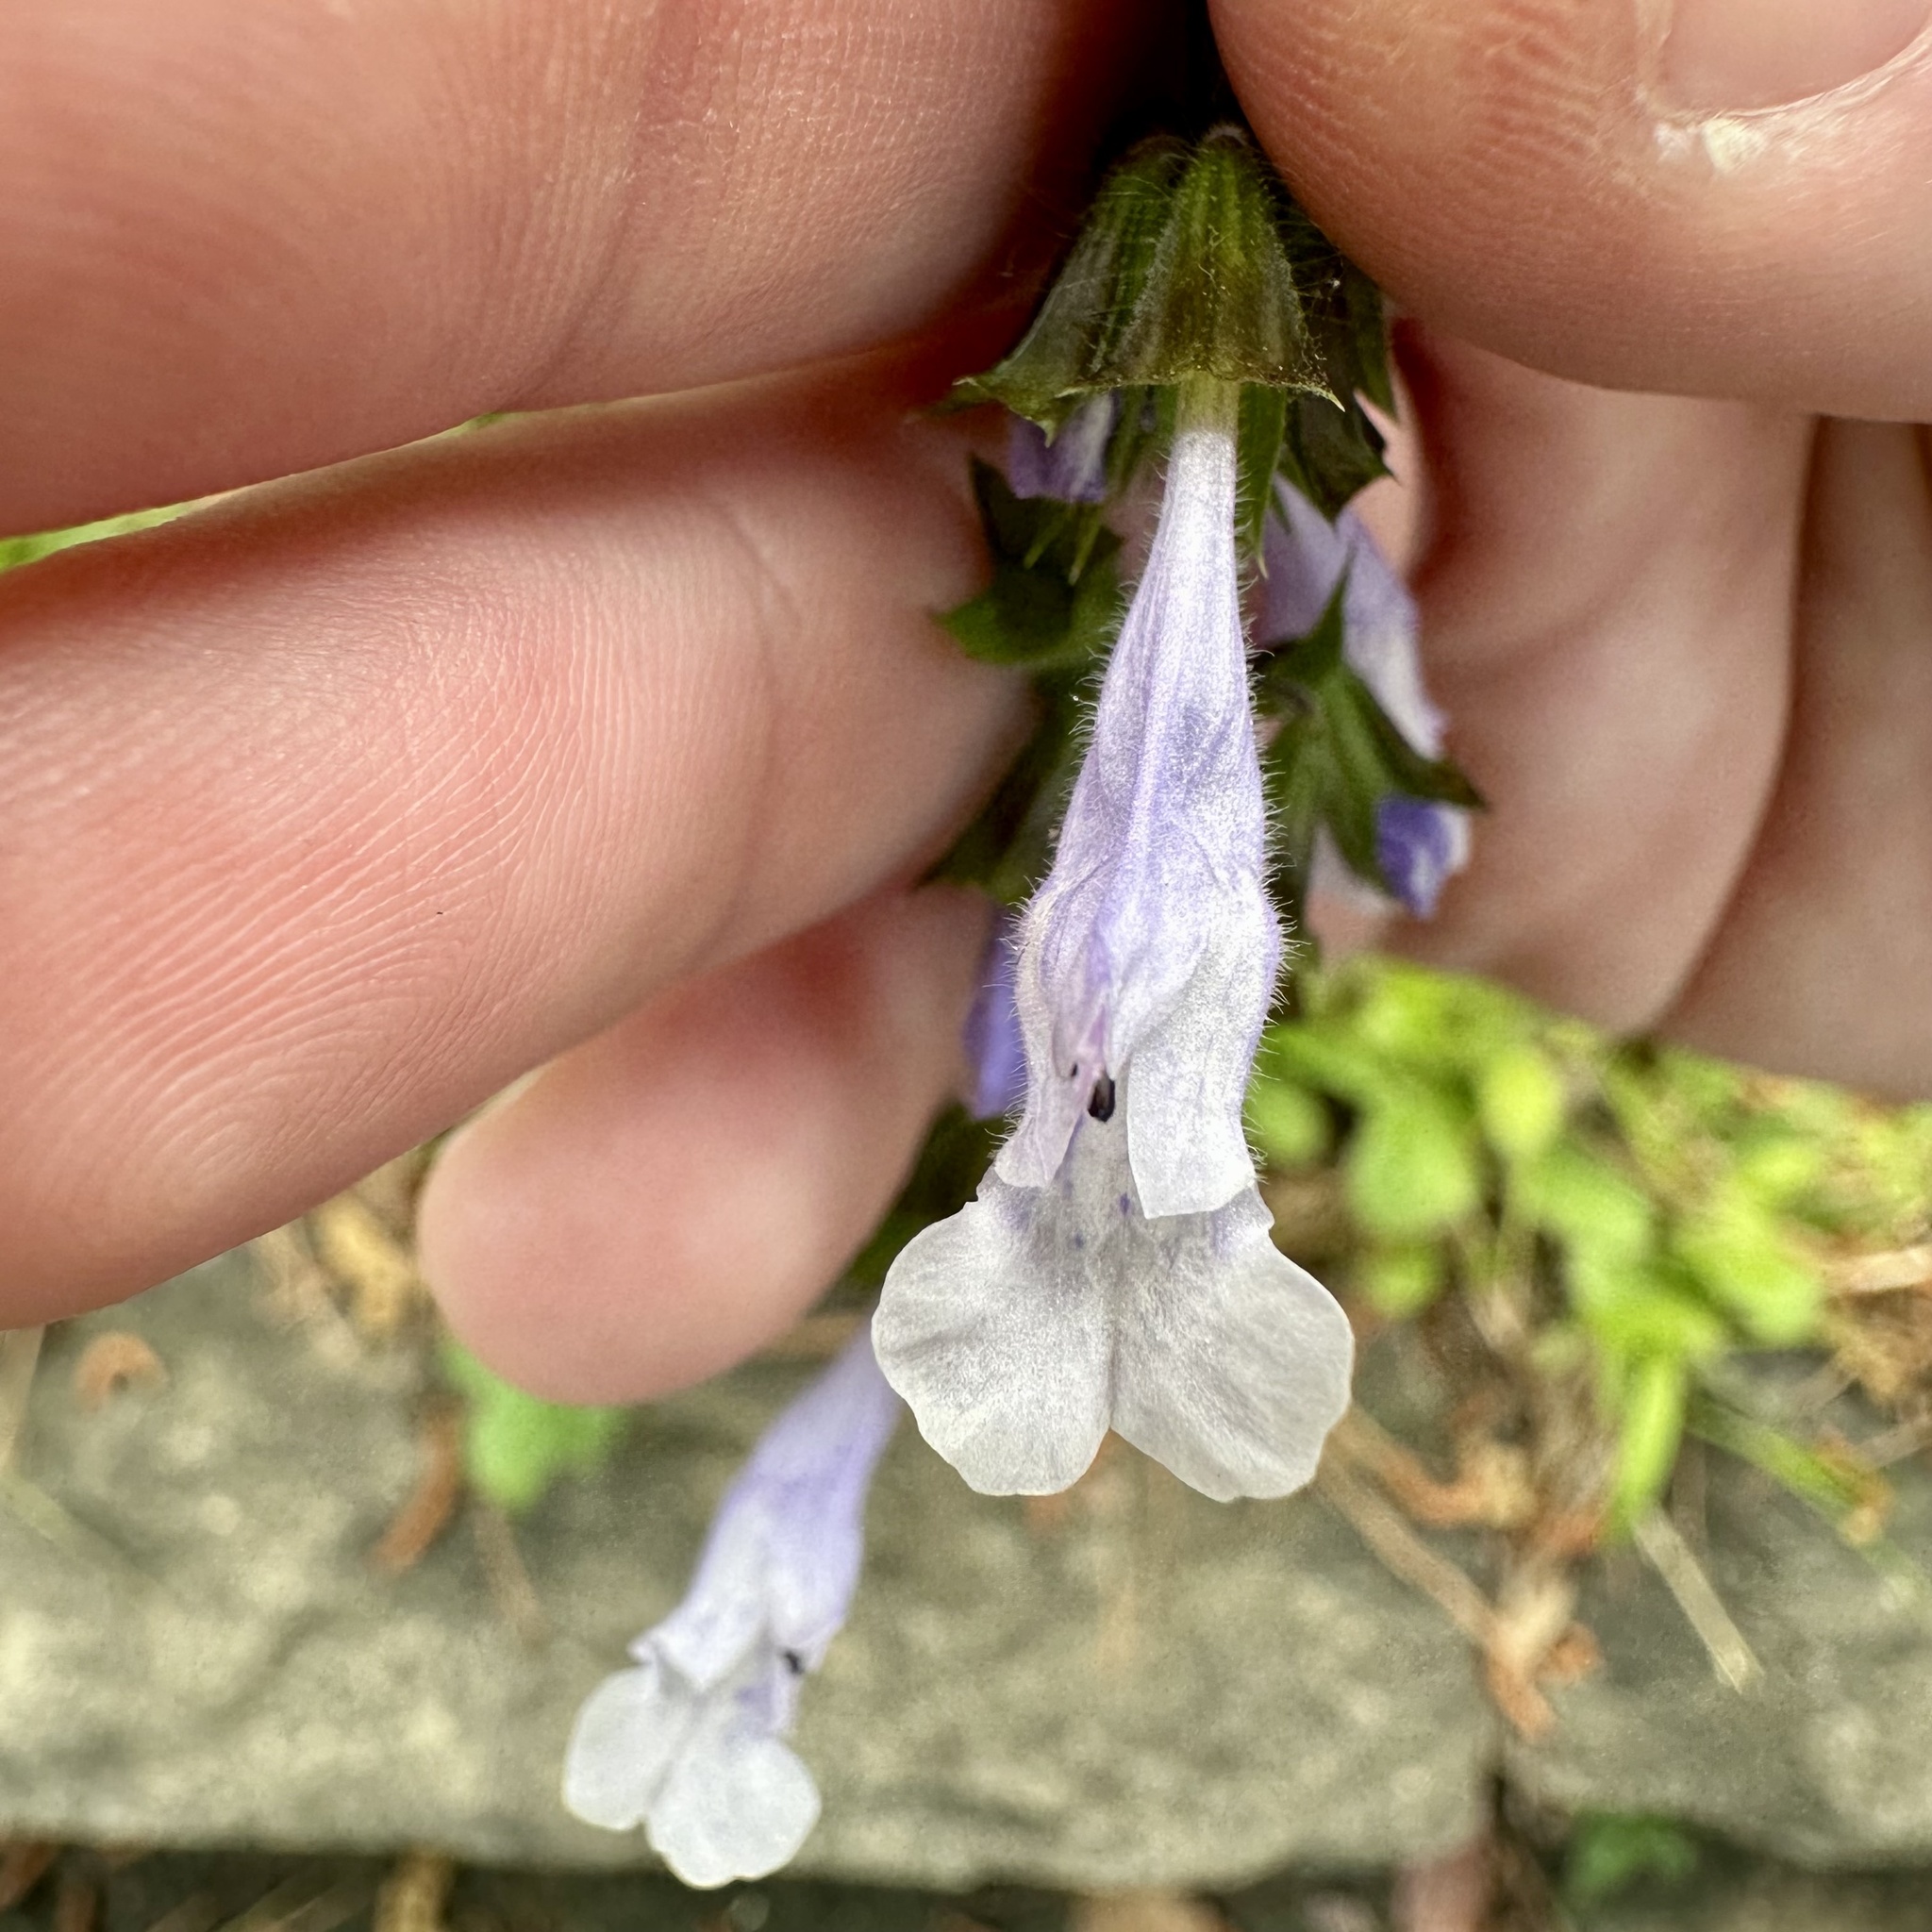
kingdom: Plantae
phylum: Tracheophyta
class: Magnoliopsida
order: Lamiales
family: Lamiaceae
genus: Salvia
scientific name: Salvia lyrata
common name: Cancerweed
